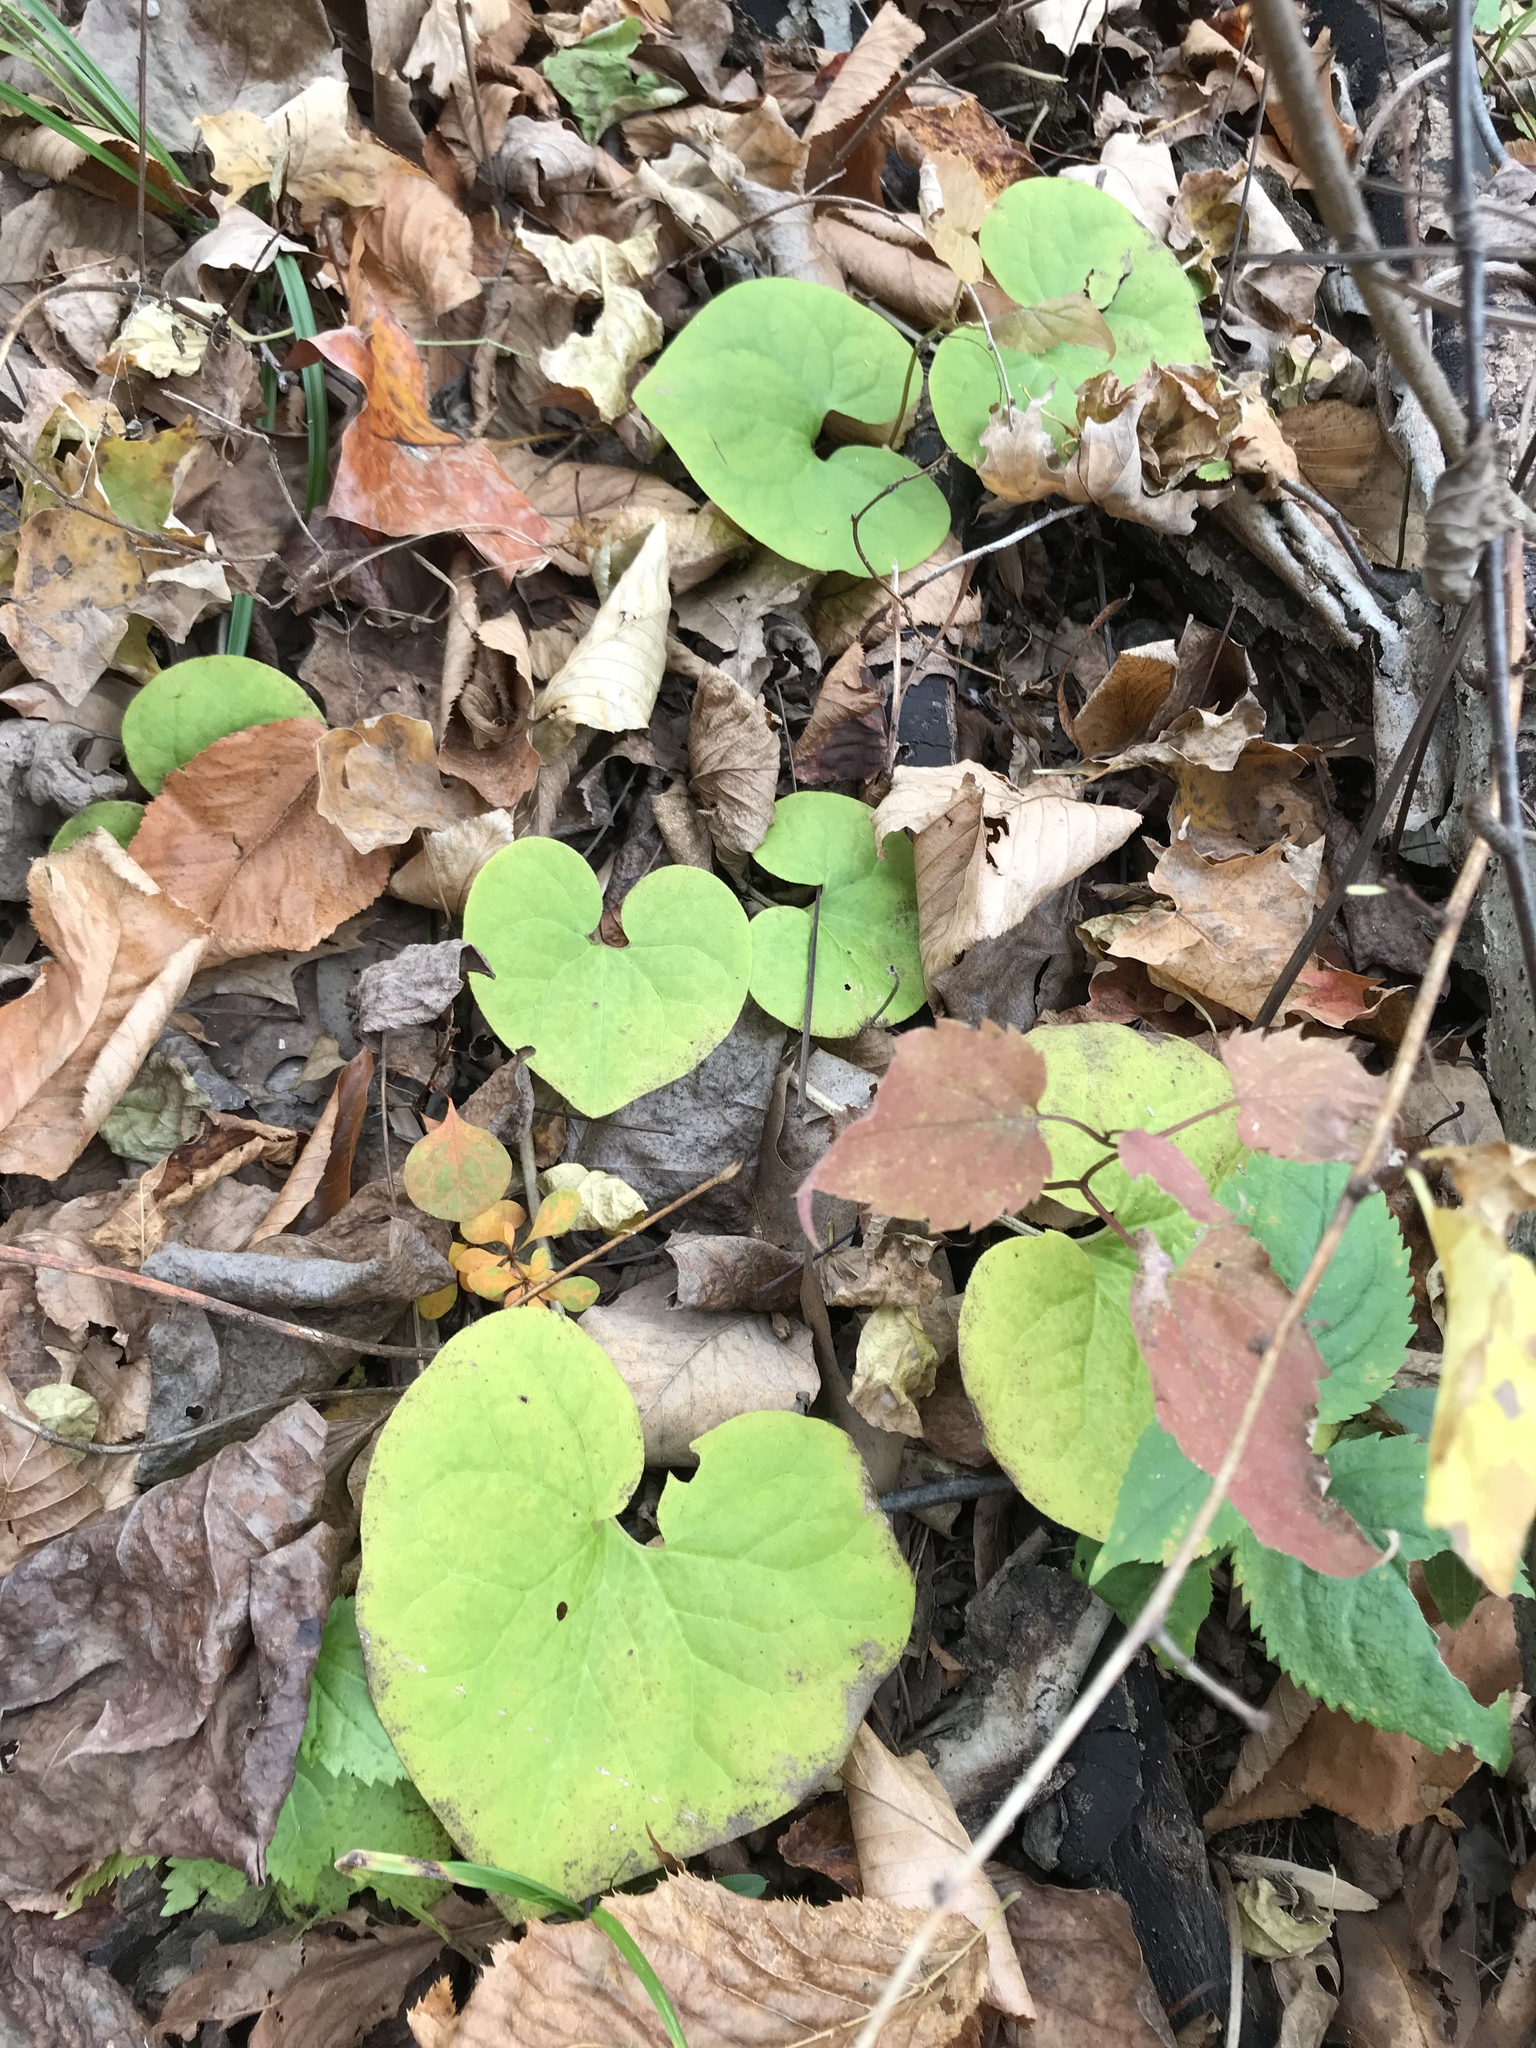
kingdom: Plantae
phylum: Tracheophyta
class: Magnoliopsida
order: Piperales
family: Aristolochiaceae
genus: Asarum
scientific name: Asarum canadense
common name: Wild ginger
